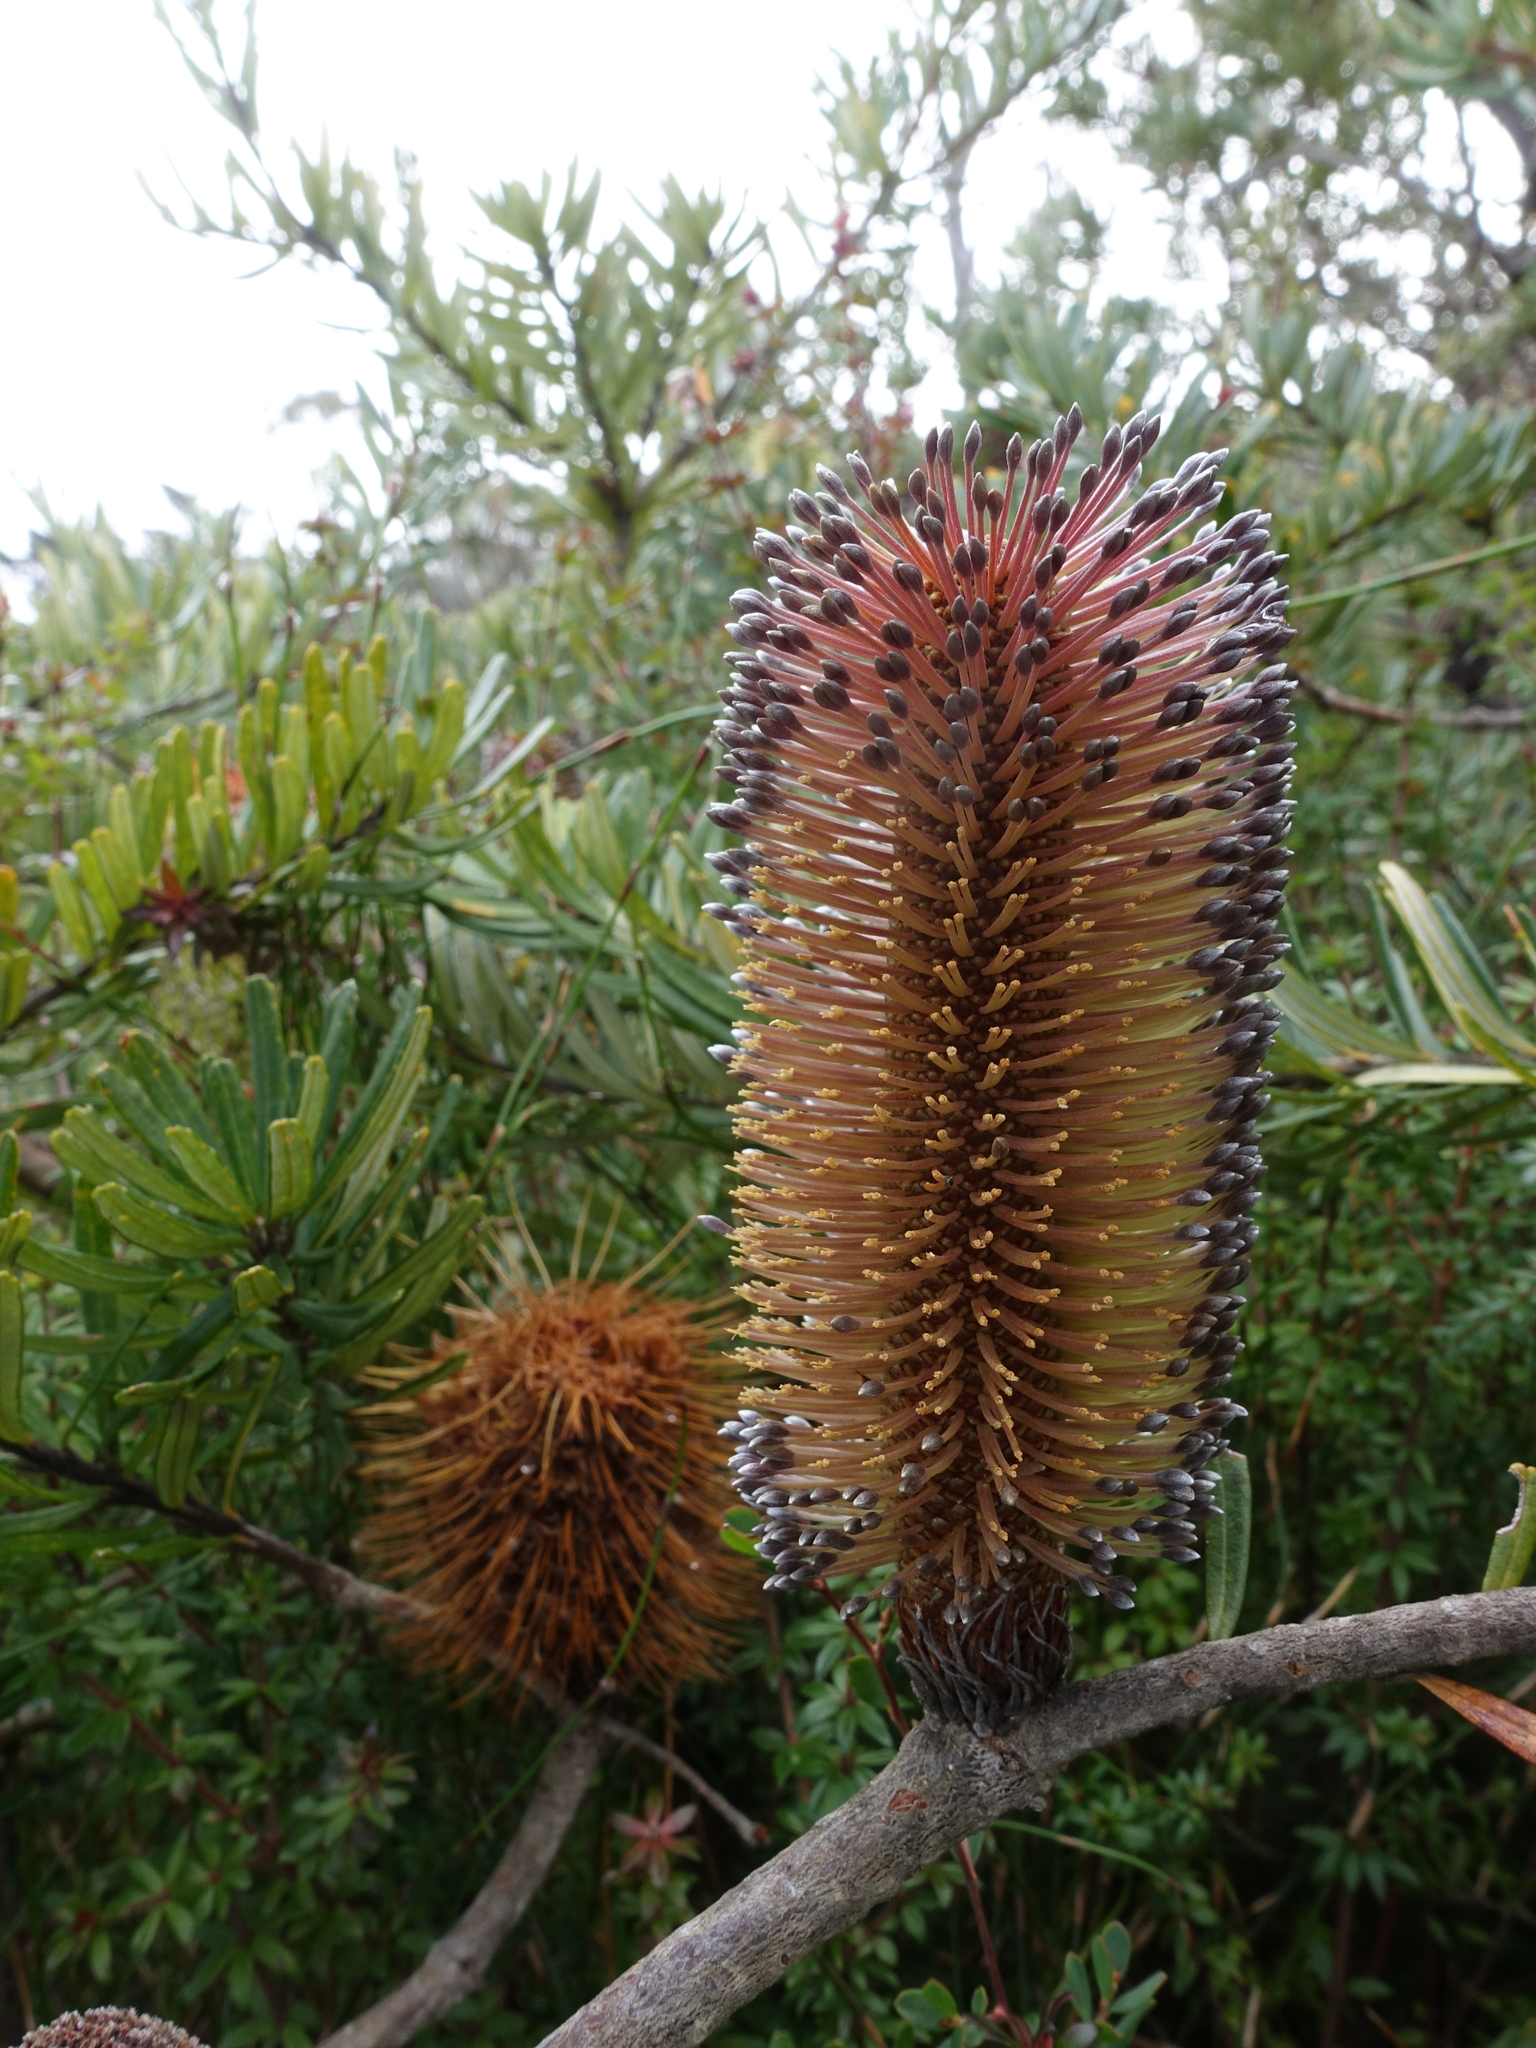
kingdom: Plantae
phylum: Tracheophyta
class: Magnoliopsida
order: Proteales
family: Proteaceae
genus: Banksia
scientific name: Banksia marginata
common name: Silver banksia
